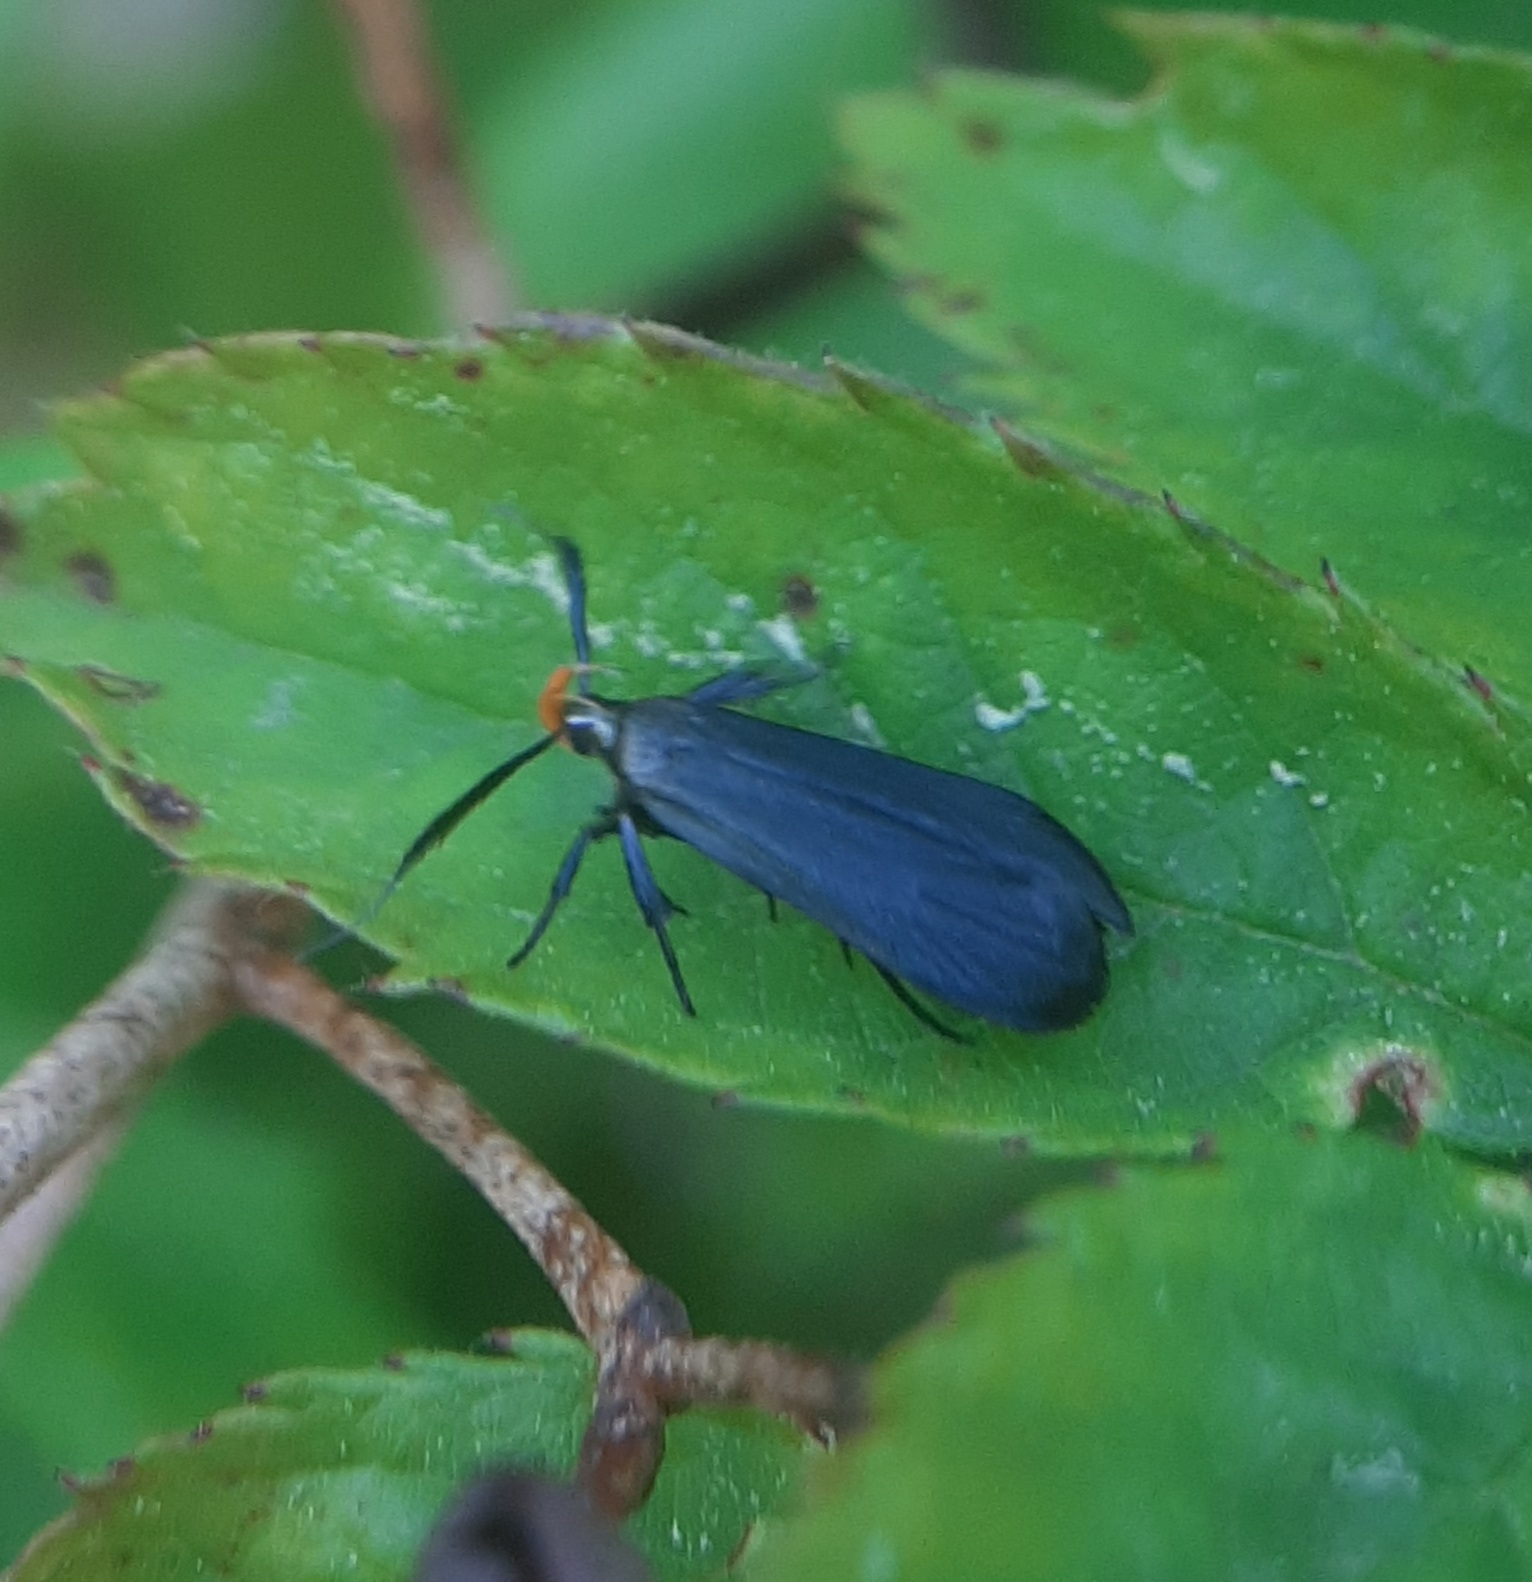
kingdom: Animalia
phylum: Arthropoda
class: Insecta
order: Lepidoptera
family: Gelechiidae
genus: Dichomeris
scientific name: Dichomeris nonstrigella
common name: Little devil moth
